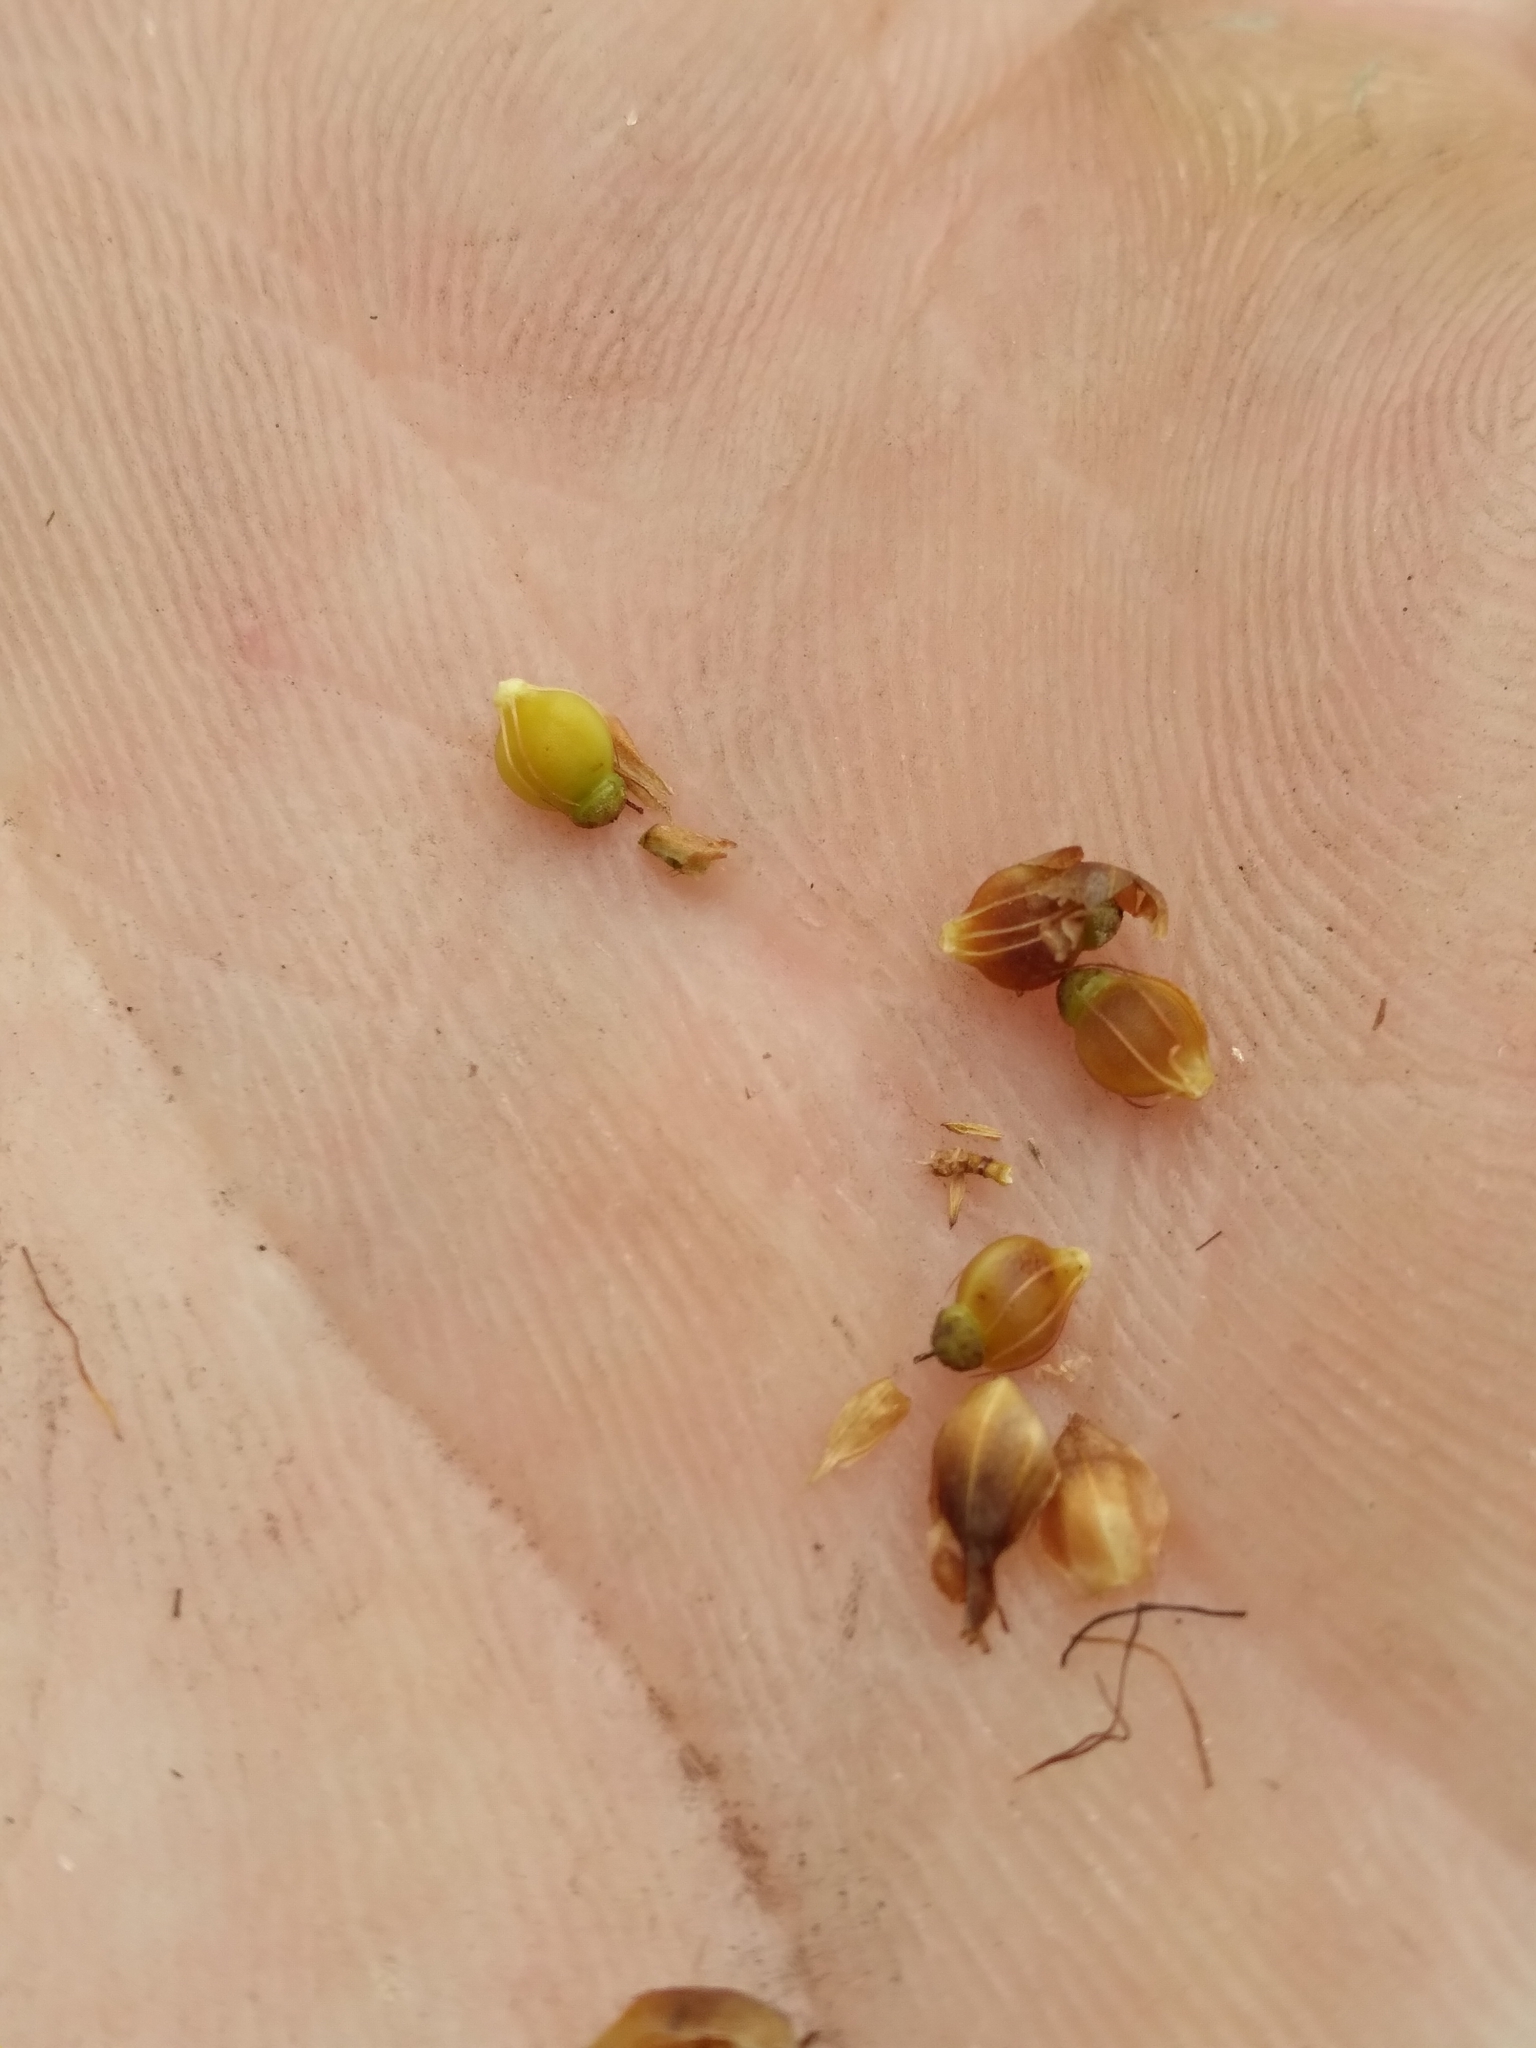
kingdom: Plantae
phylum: Tracheophyta
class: Liliopsida
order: Poales
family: Cyperaceae
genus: Rhynchospora
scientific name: Rhynchospora grayi
